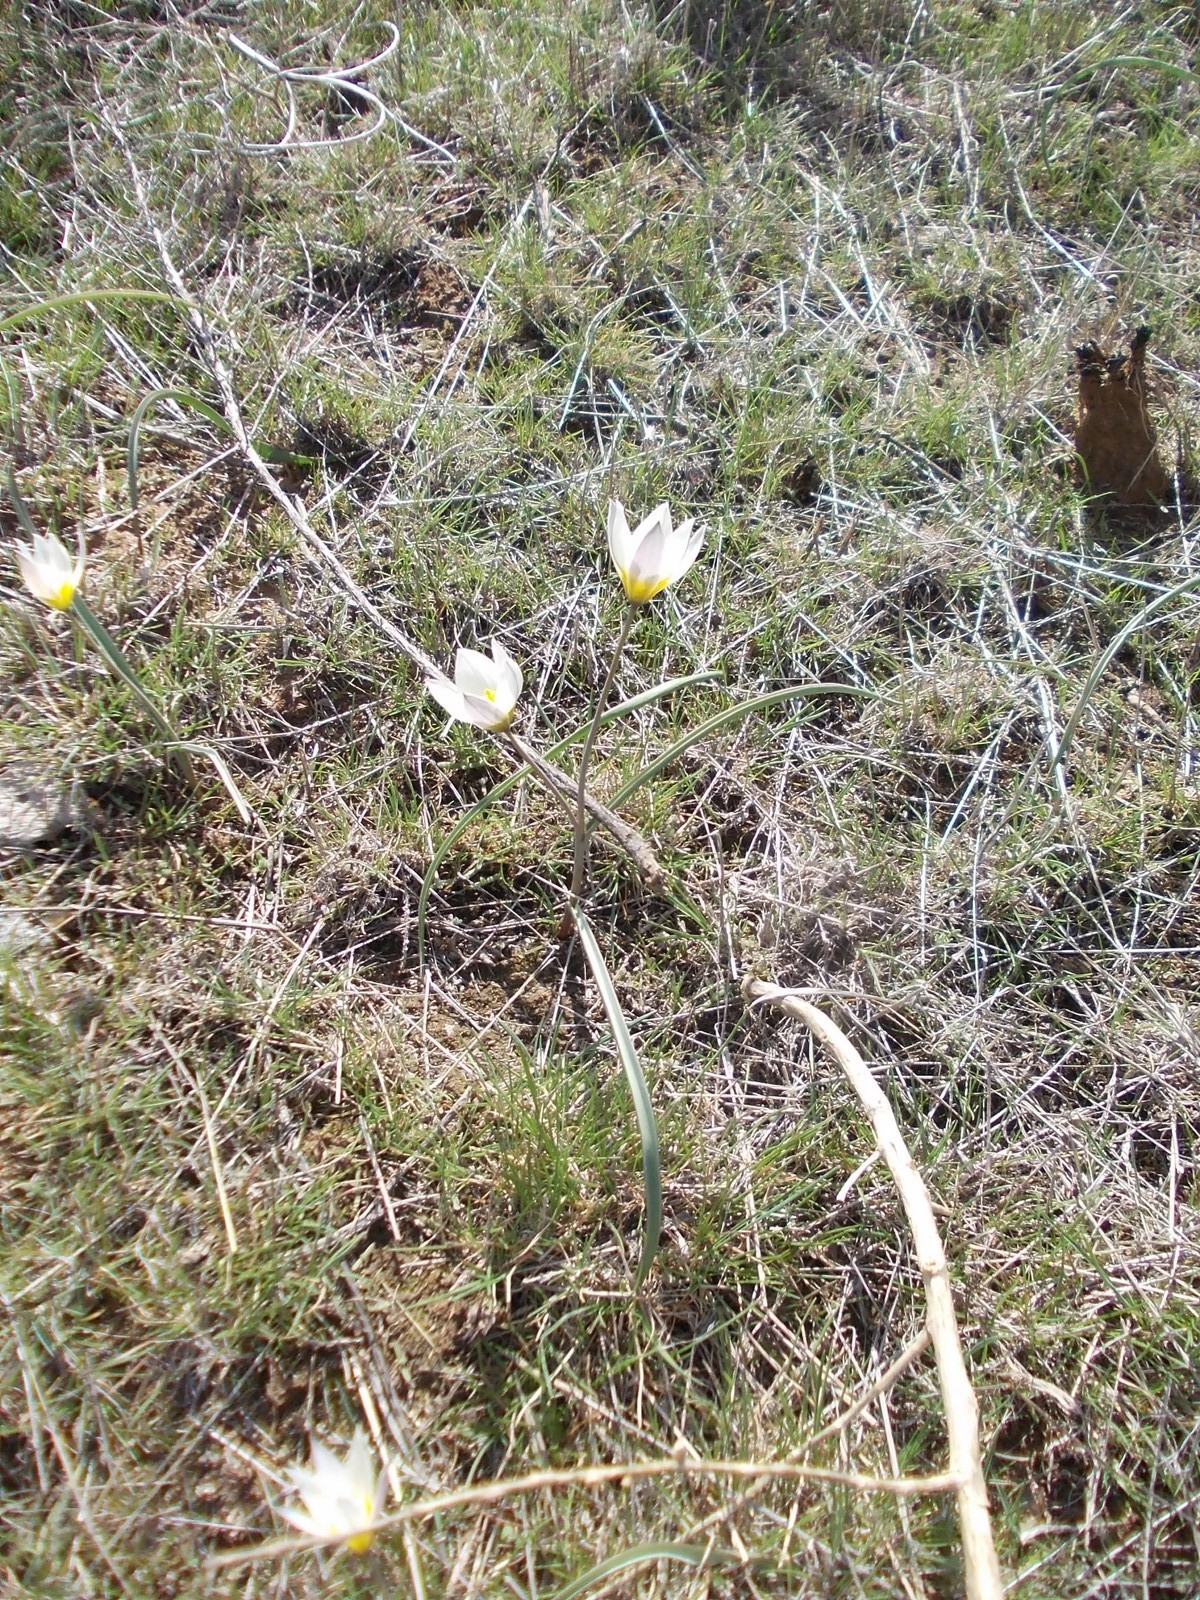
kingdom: Plantae
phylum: Tracheophyta
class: Liliopsida
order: Liliales
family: Liliaceae
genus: Tulipa
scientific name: Tulipa biflora
